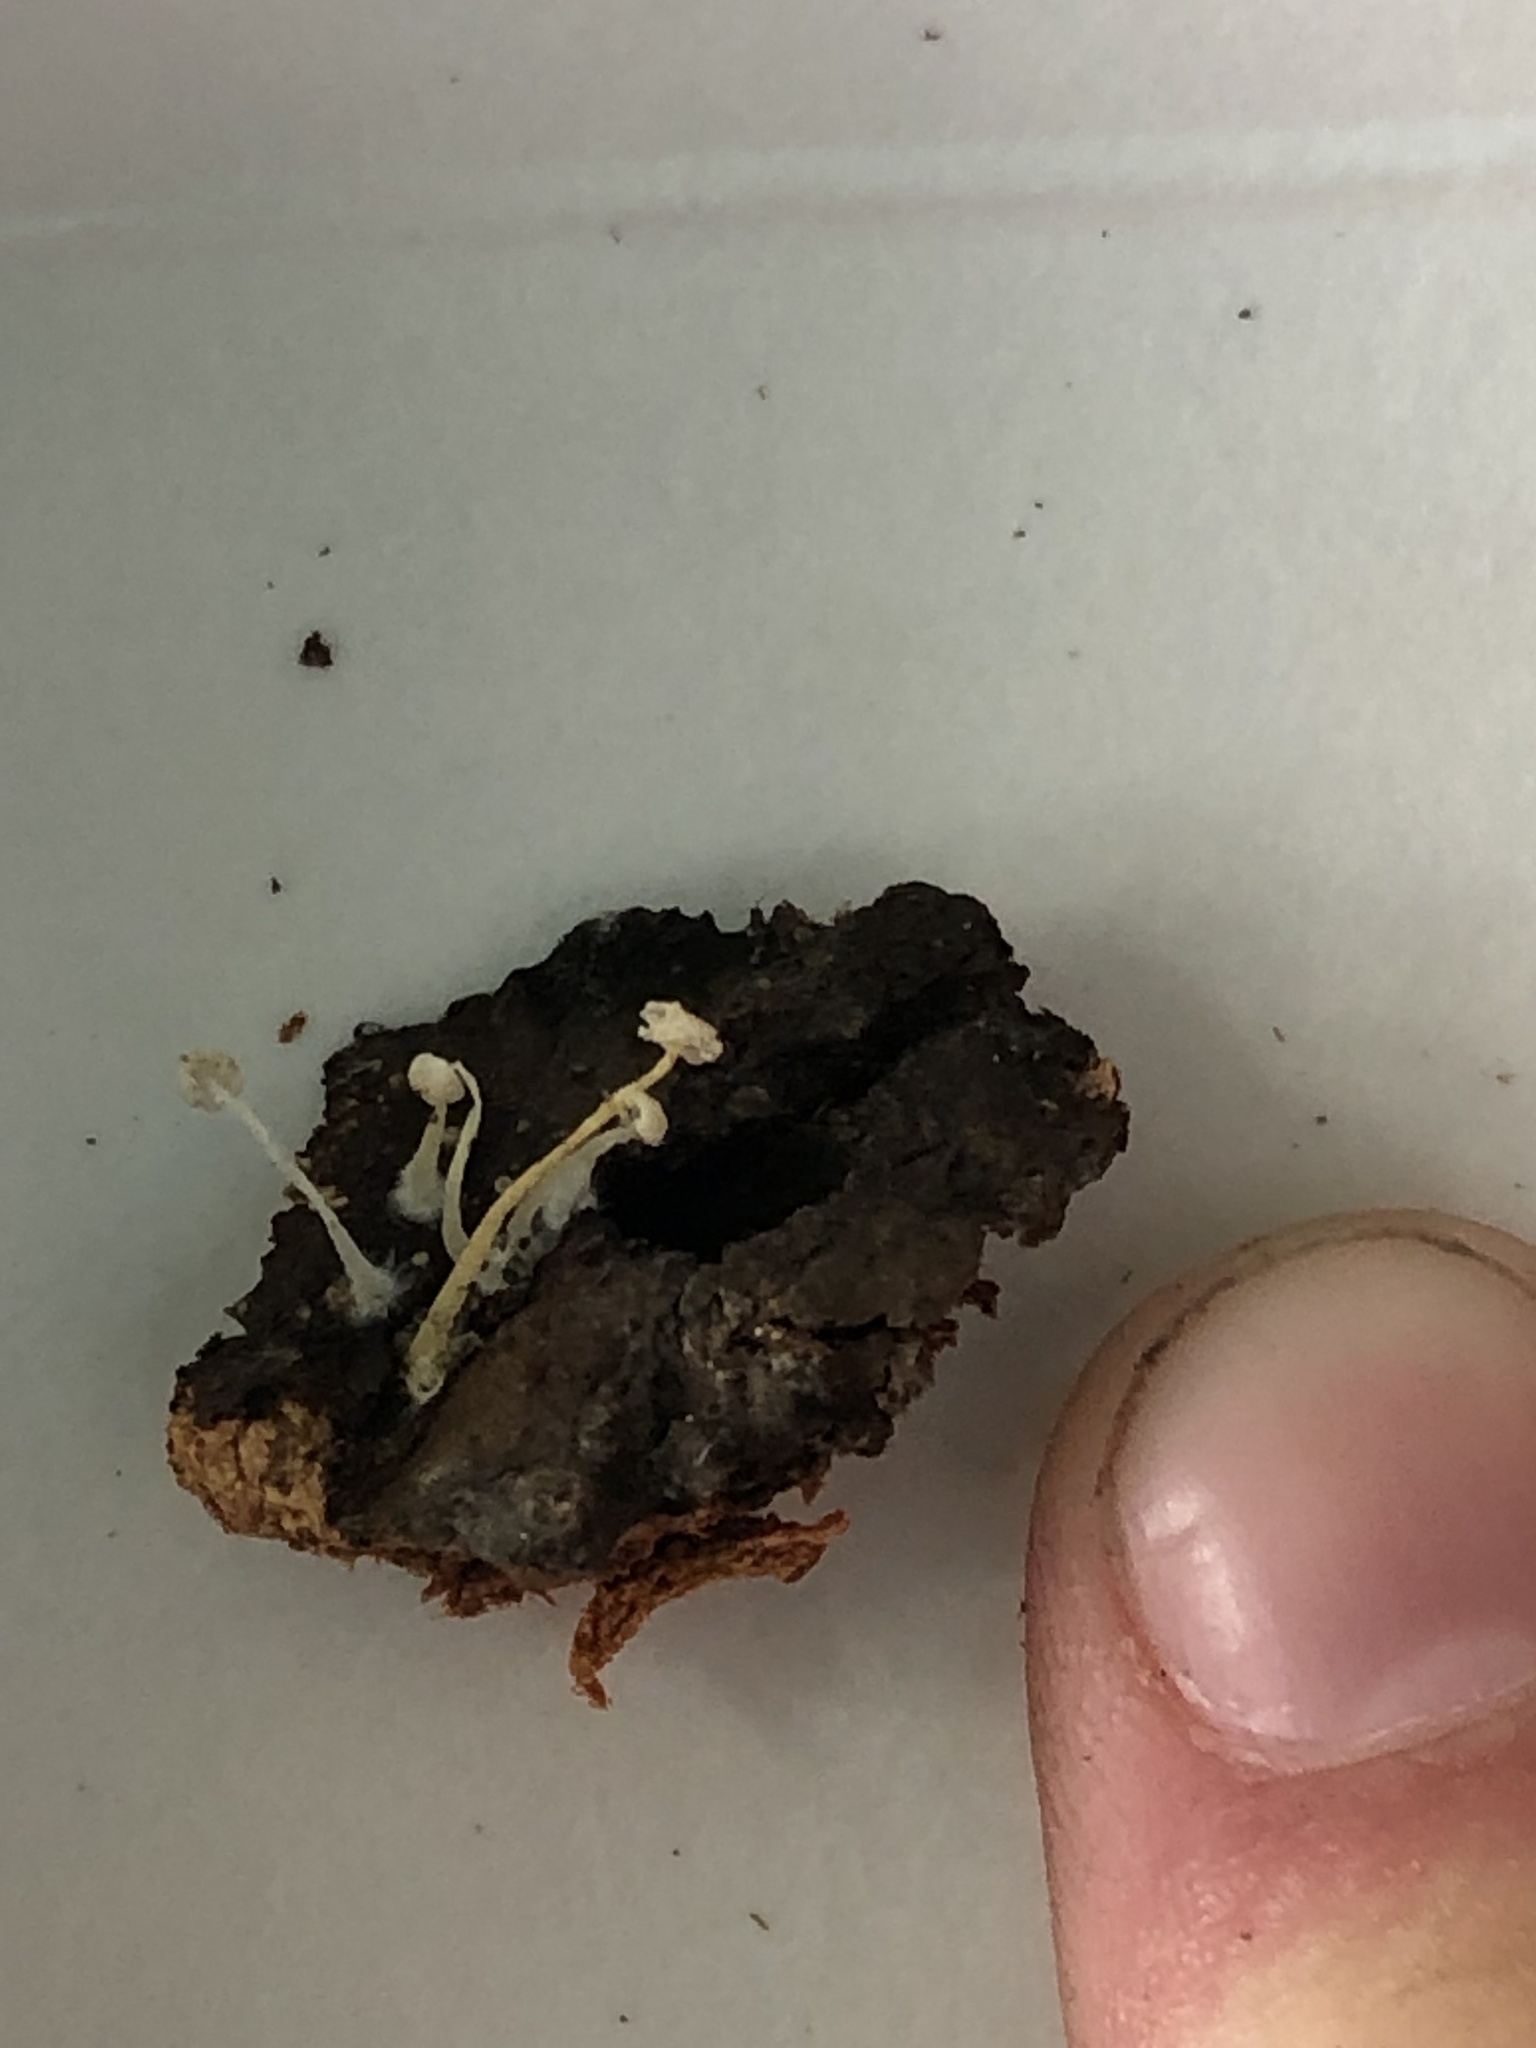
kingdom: Fungi
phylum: Basidiomycota
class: Agaricomycetes
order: Agaricales
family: Tricholomataceae
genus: Delicatula
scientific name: Delicatula integrella
